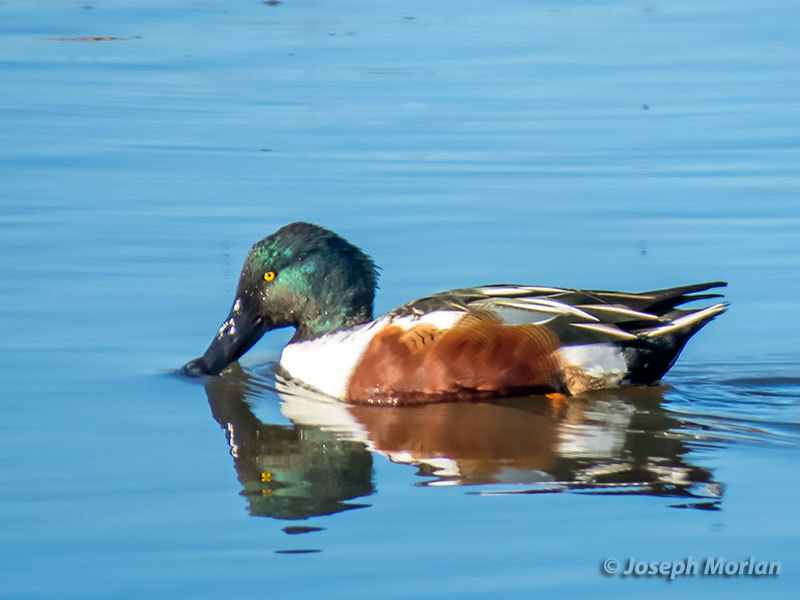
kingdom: Animalia
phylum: Chordata
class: Aves
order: Anseriformes
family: Anatidae
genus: Spatula
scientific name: Spatula clypeata
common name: Northern shoveler
